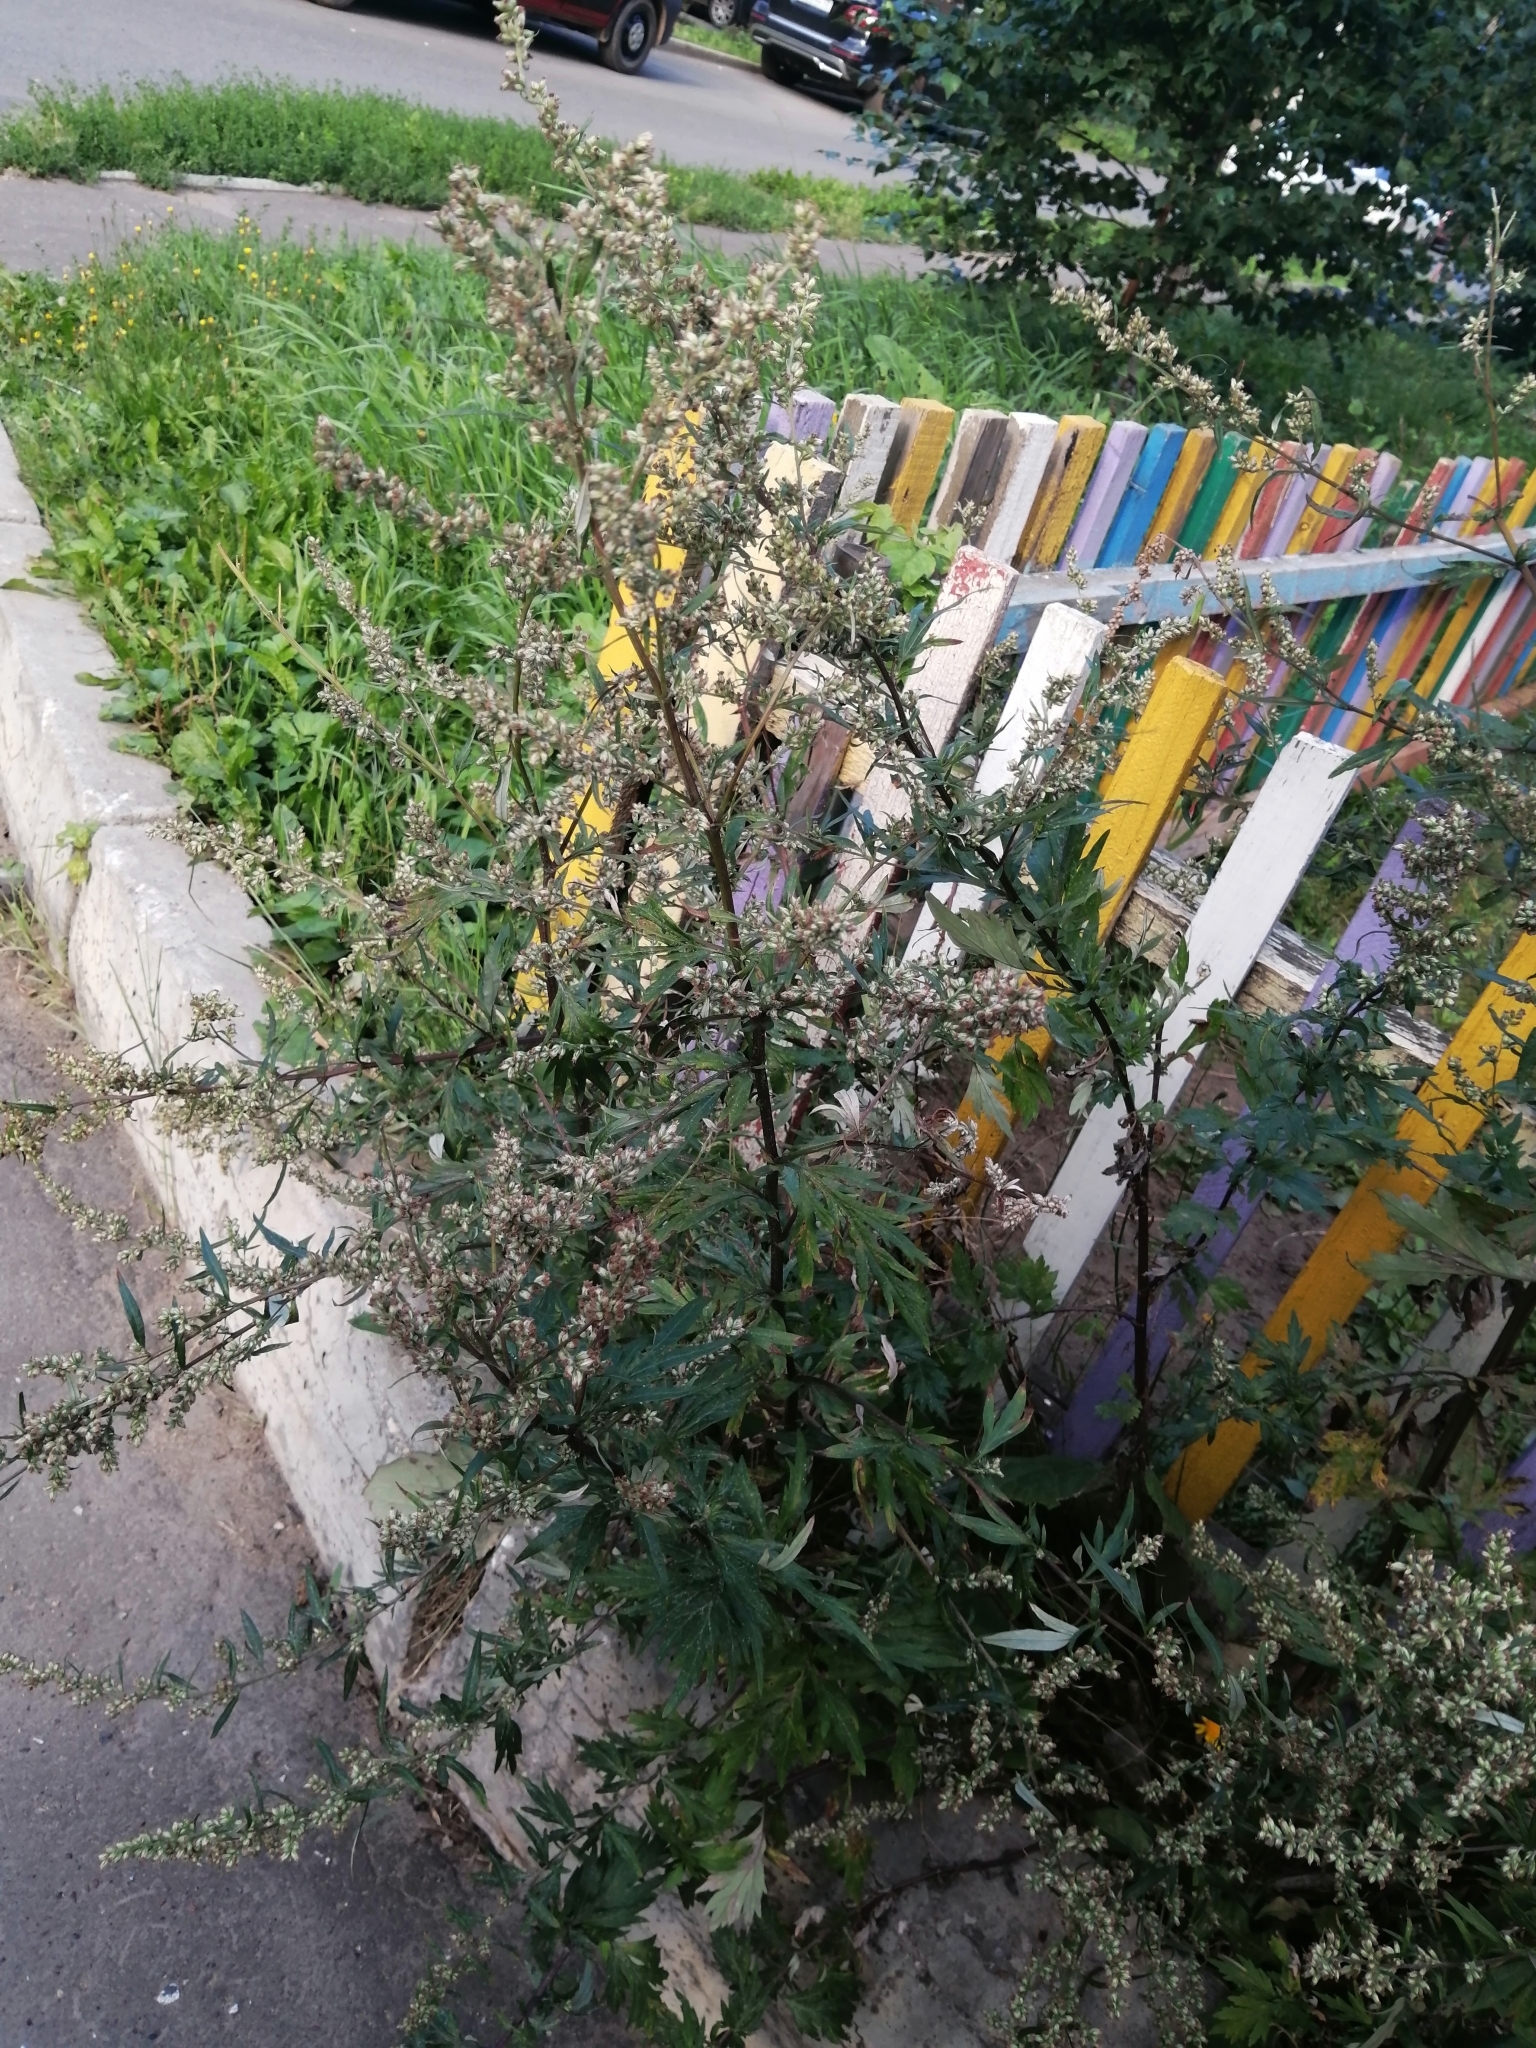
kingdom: Plantae
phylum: Tracheophyta
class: Magnoliopsida
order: Asterales
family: Asteraceae
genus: Artemisia
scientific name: Artemisia vulgaris
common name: Mugwort
